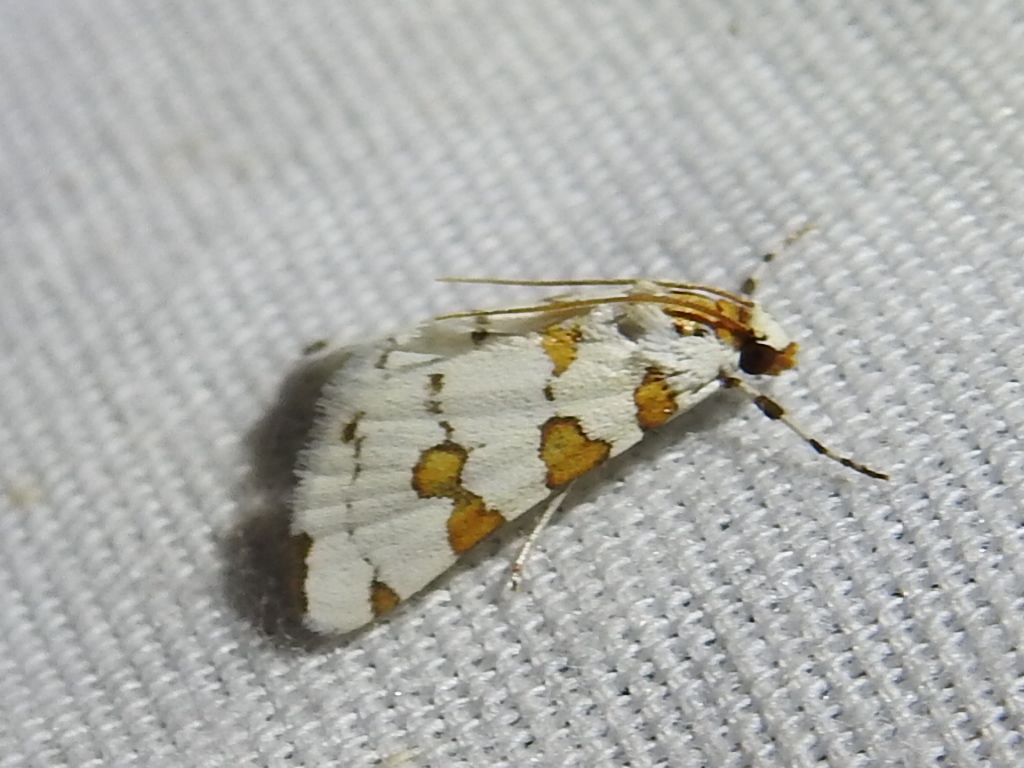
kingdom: Animalia
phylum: Arthropoda
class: Insecta
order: Lepidoptera
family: Crambidae
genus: Conchylodes
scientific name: Conchylodes
